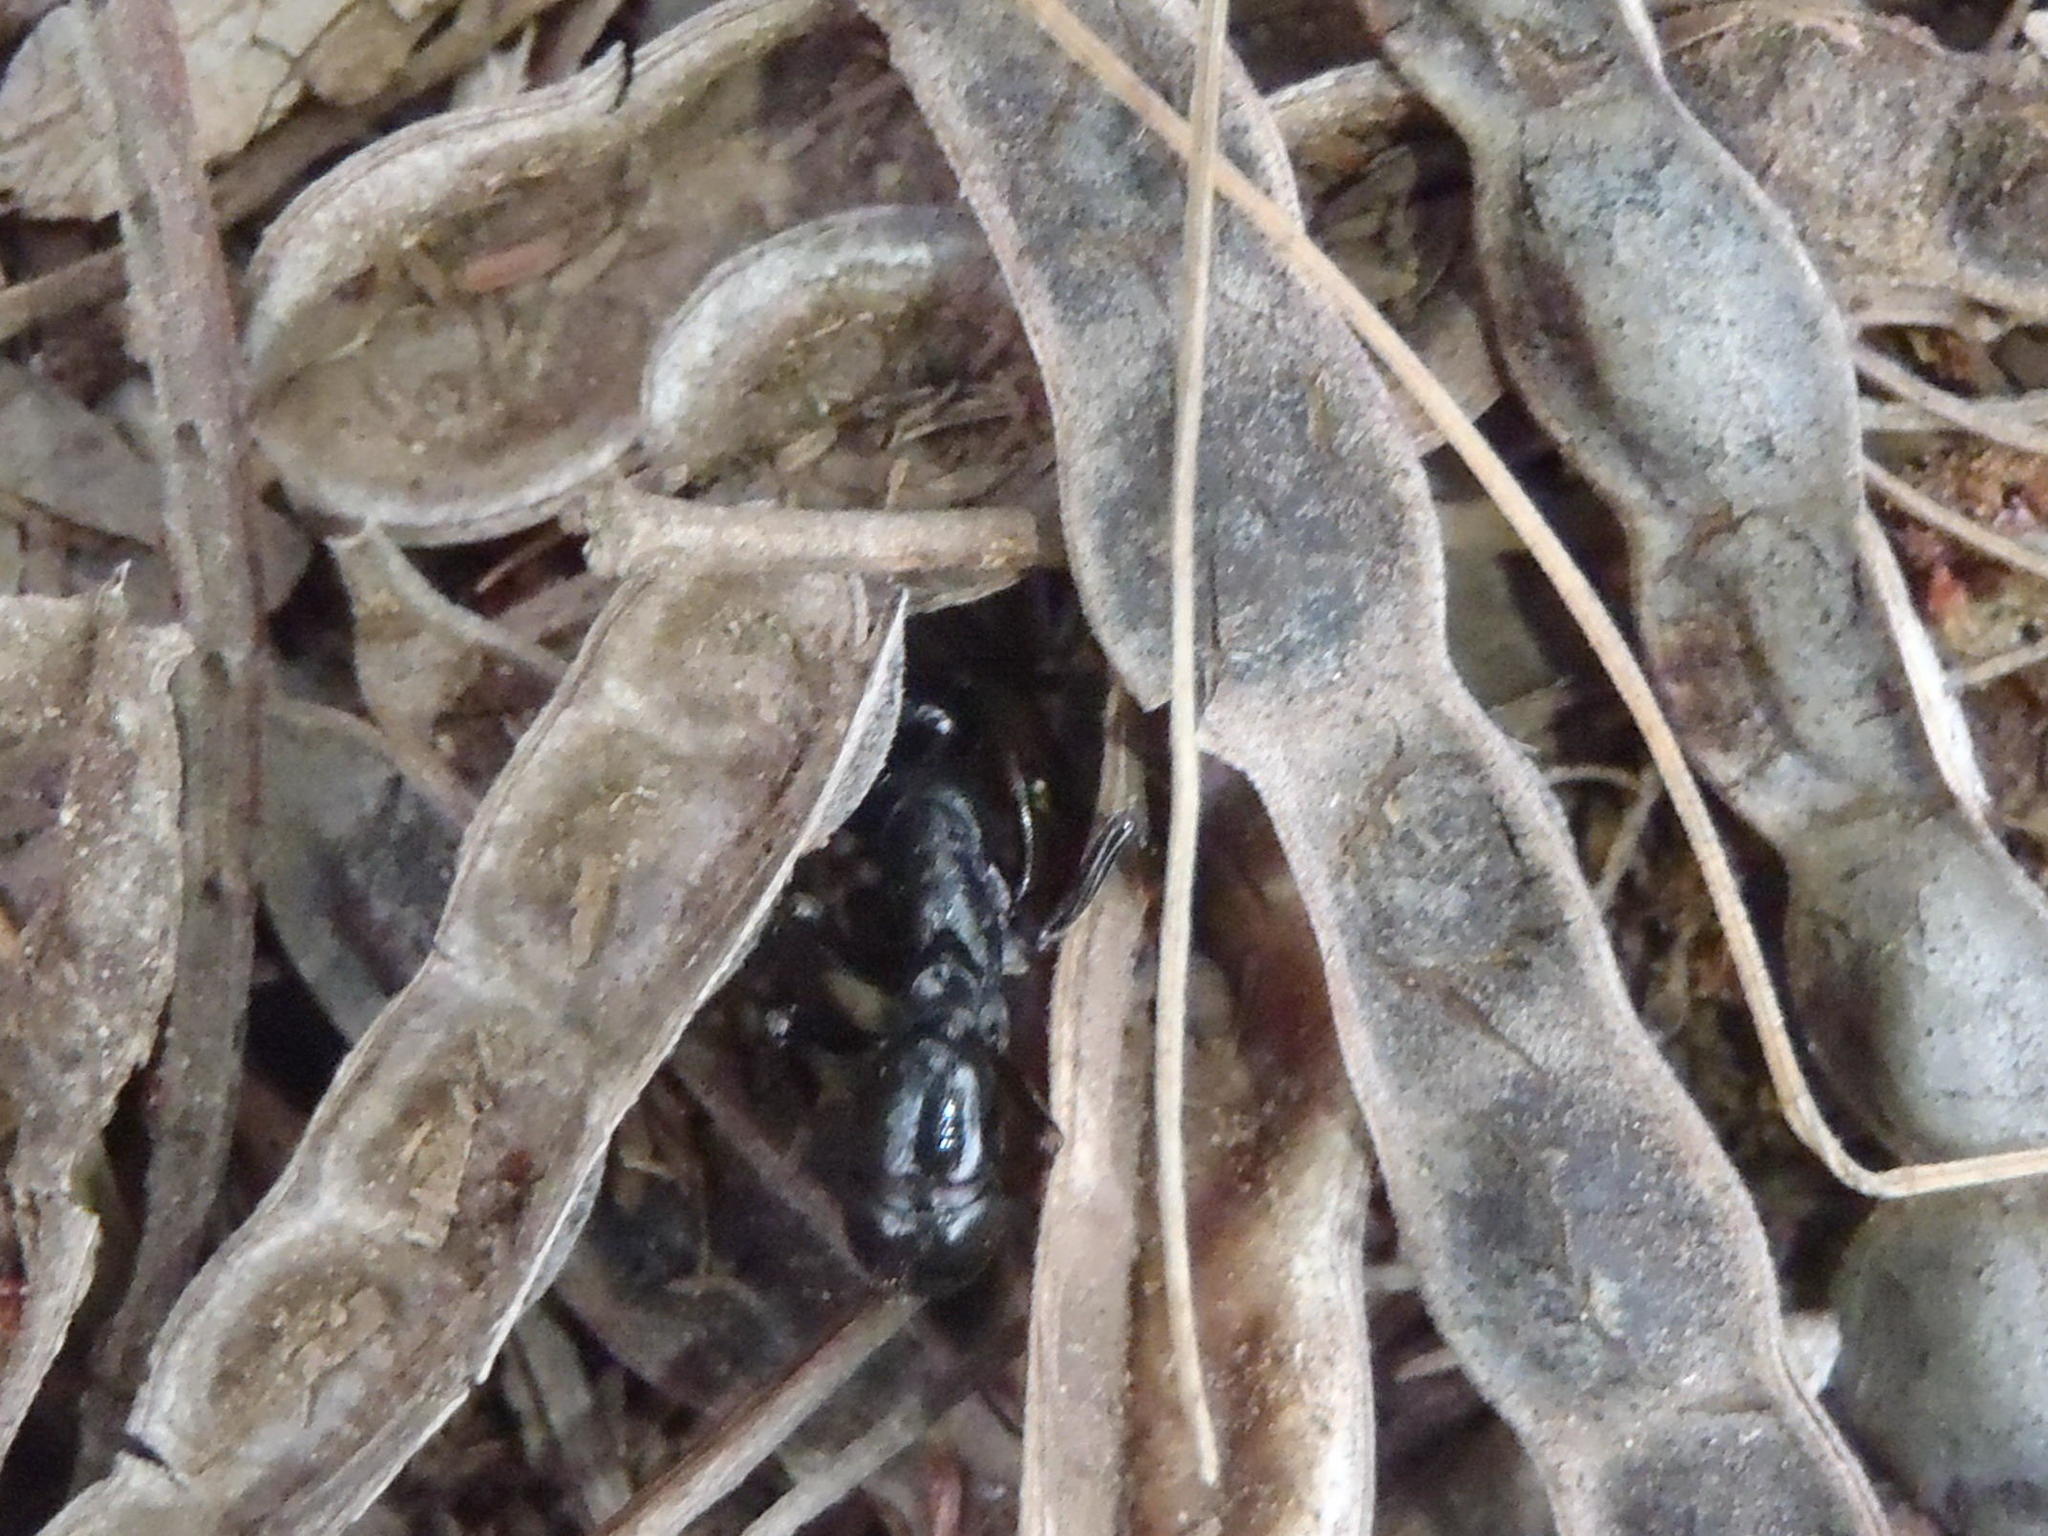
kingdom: Animalia
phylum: Arthropoda
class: Insecta
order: Hymenoptera
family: Formicidae
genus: Plectroctena
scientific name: Plectroctena mandibularis
